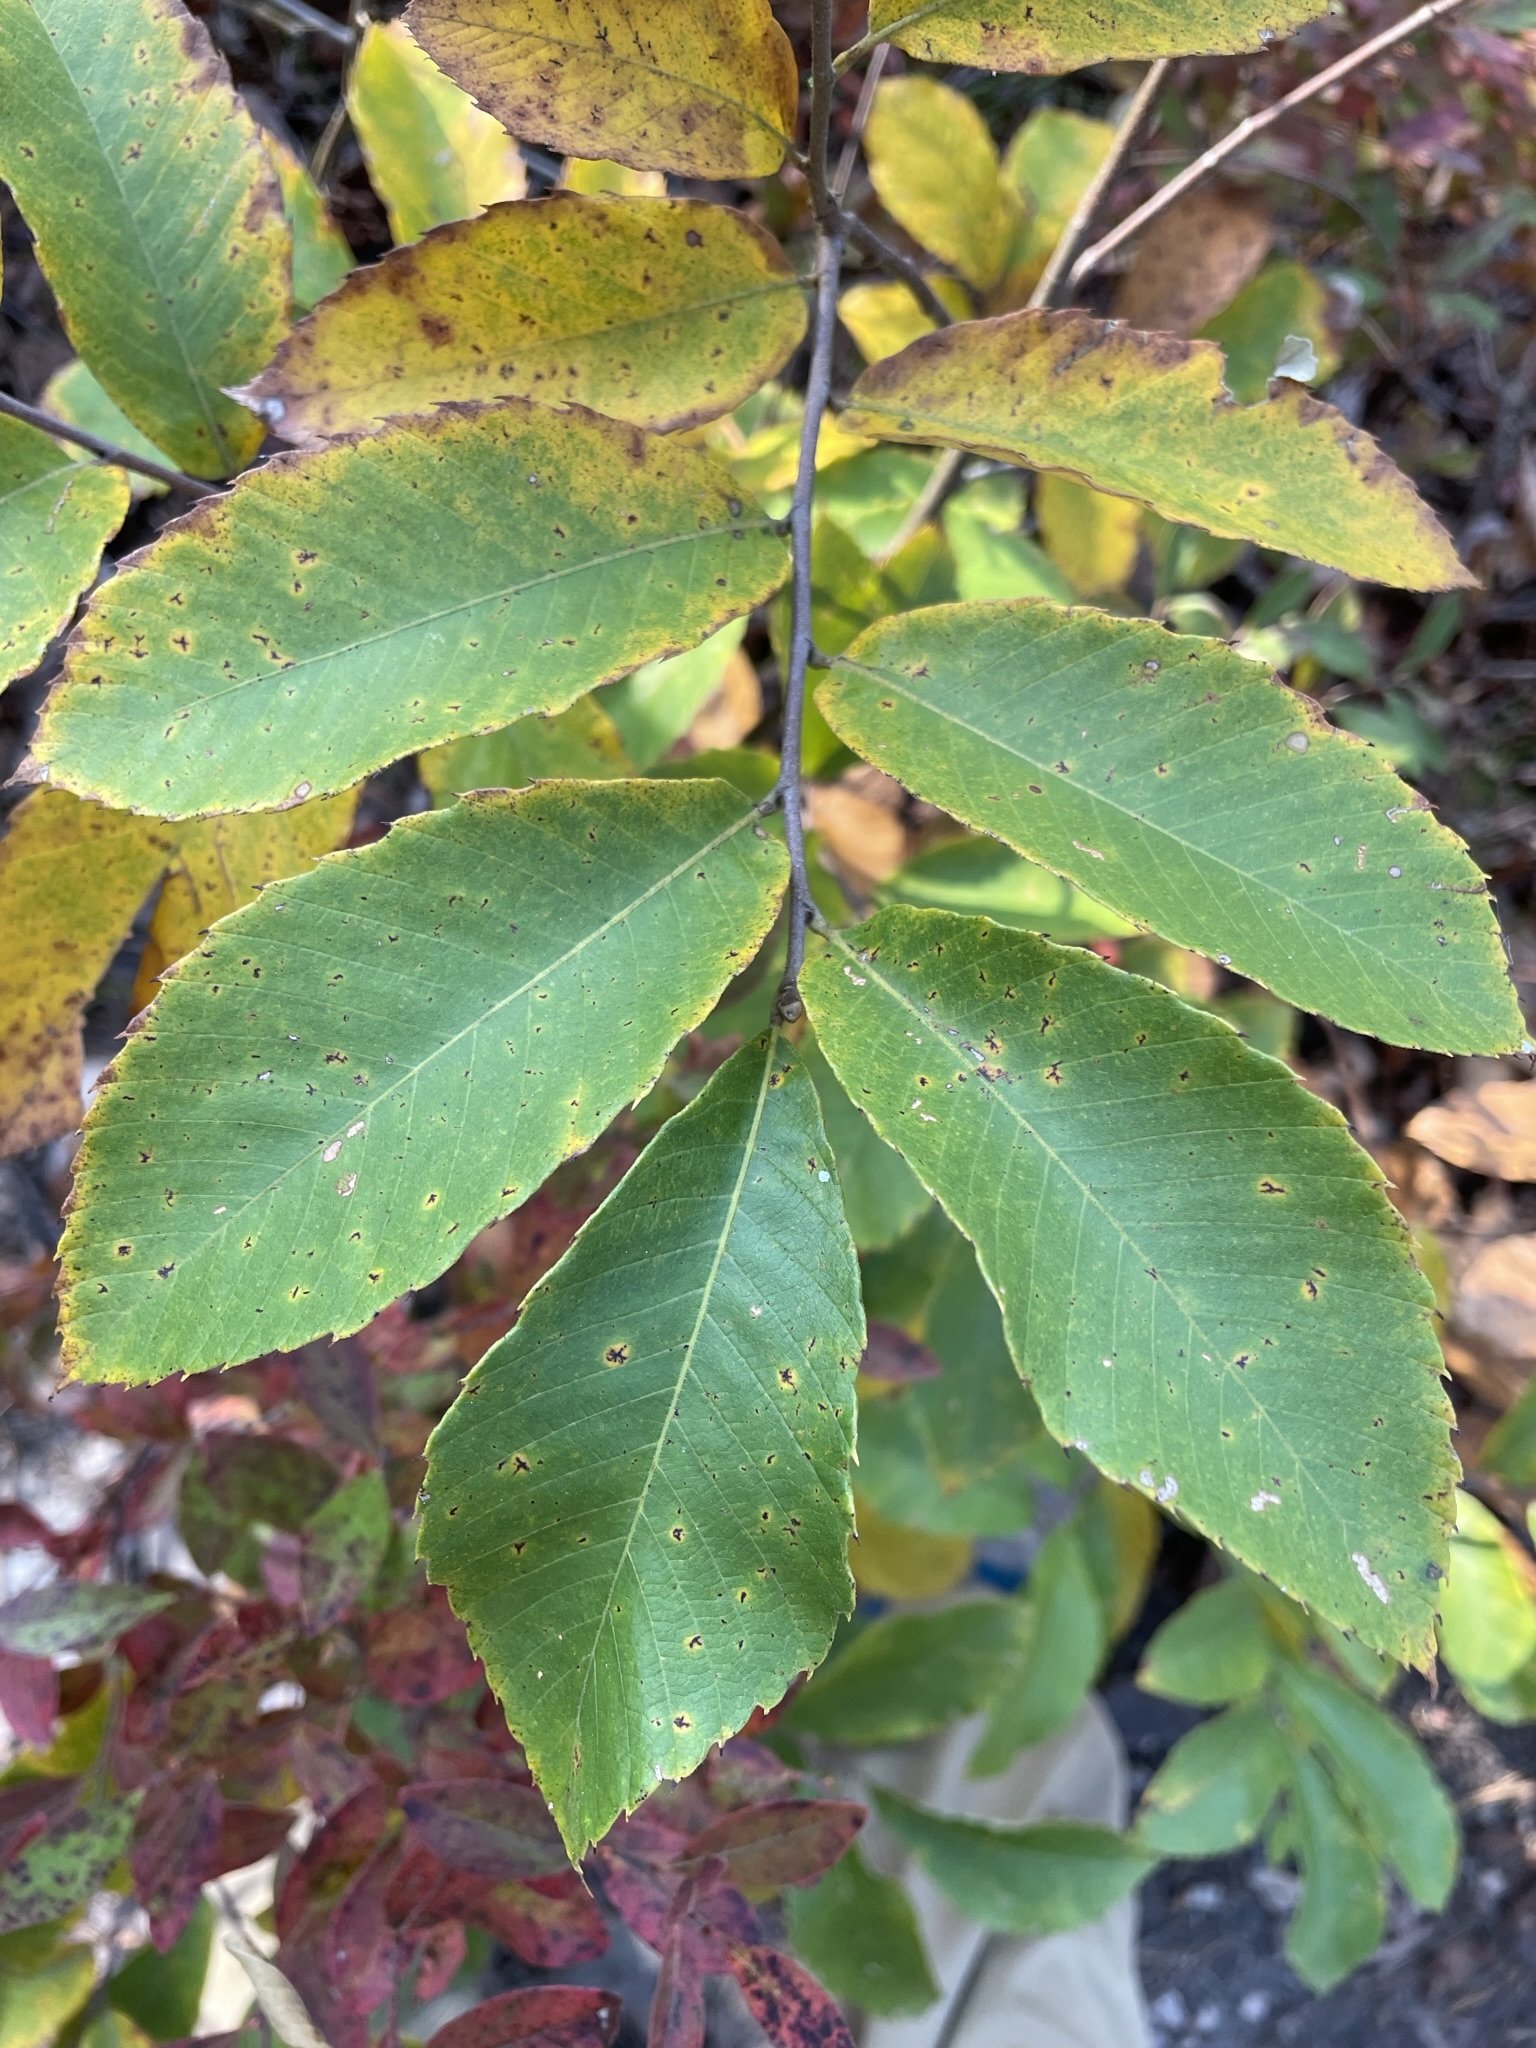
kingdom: Plantae
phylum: Tracheophyta
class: Magnoliopsida
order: Fagales
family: Fagaceae
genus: Castanea
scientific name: Castanea pumila
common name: Chinkapin
